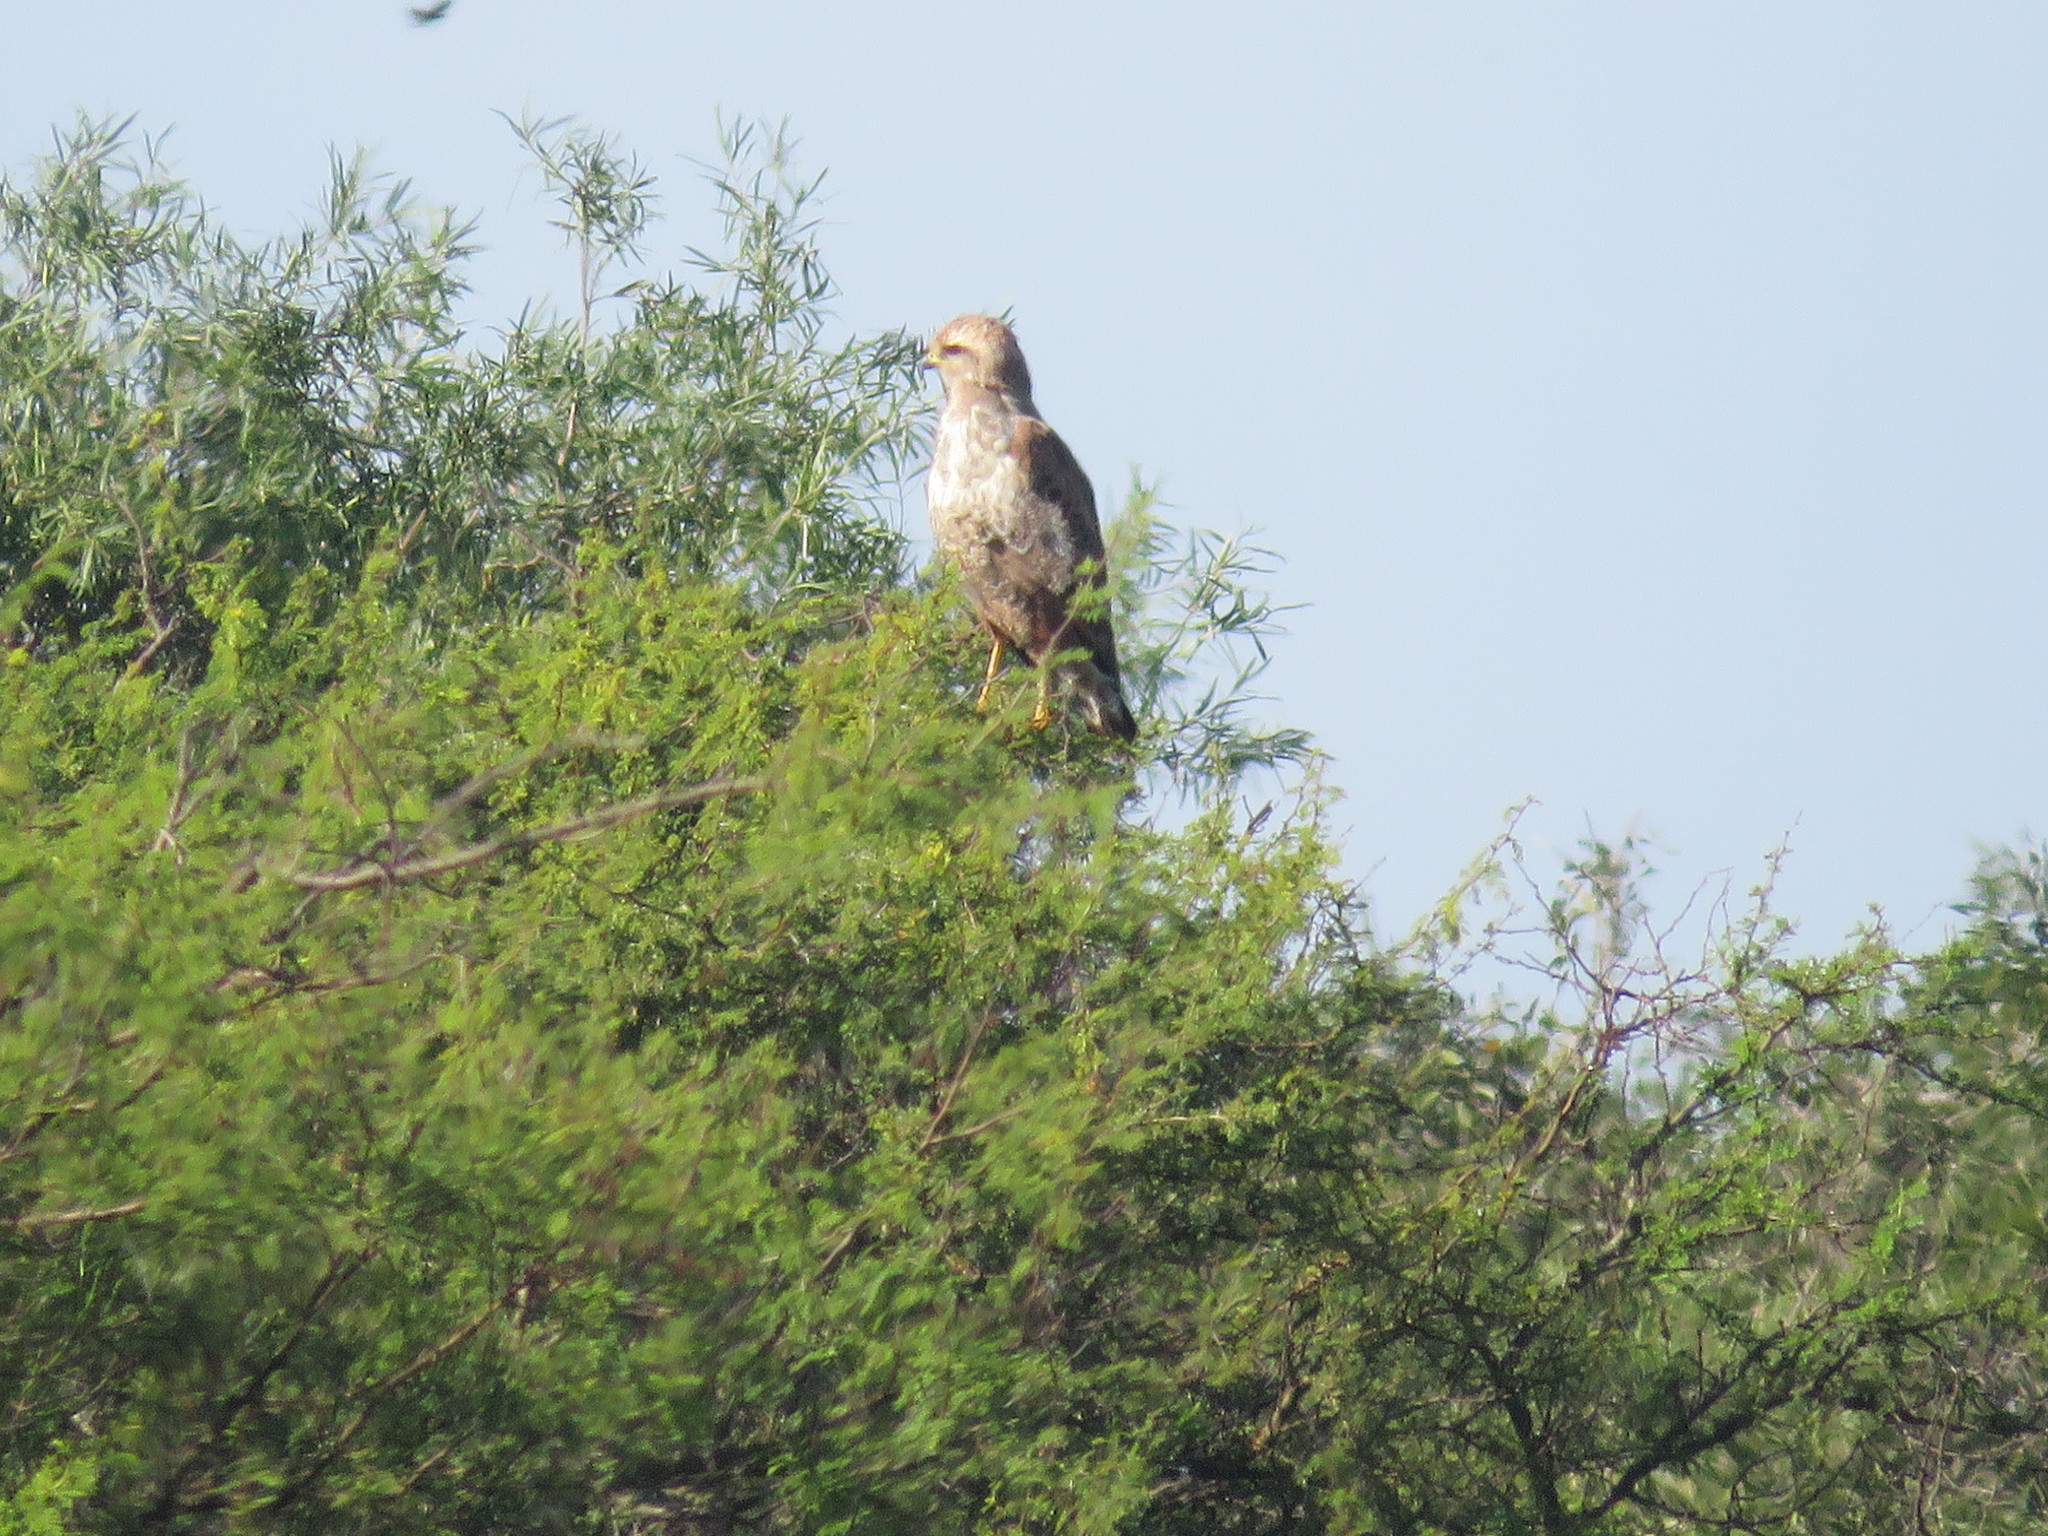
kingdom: Animalia
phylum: Chordata
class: Aves
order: Accipitriformes
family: Accipitridae
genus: Buteogallus
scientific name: Buteogallus meridionalis
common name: Savanna hawk
